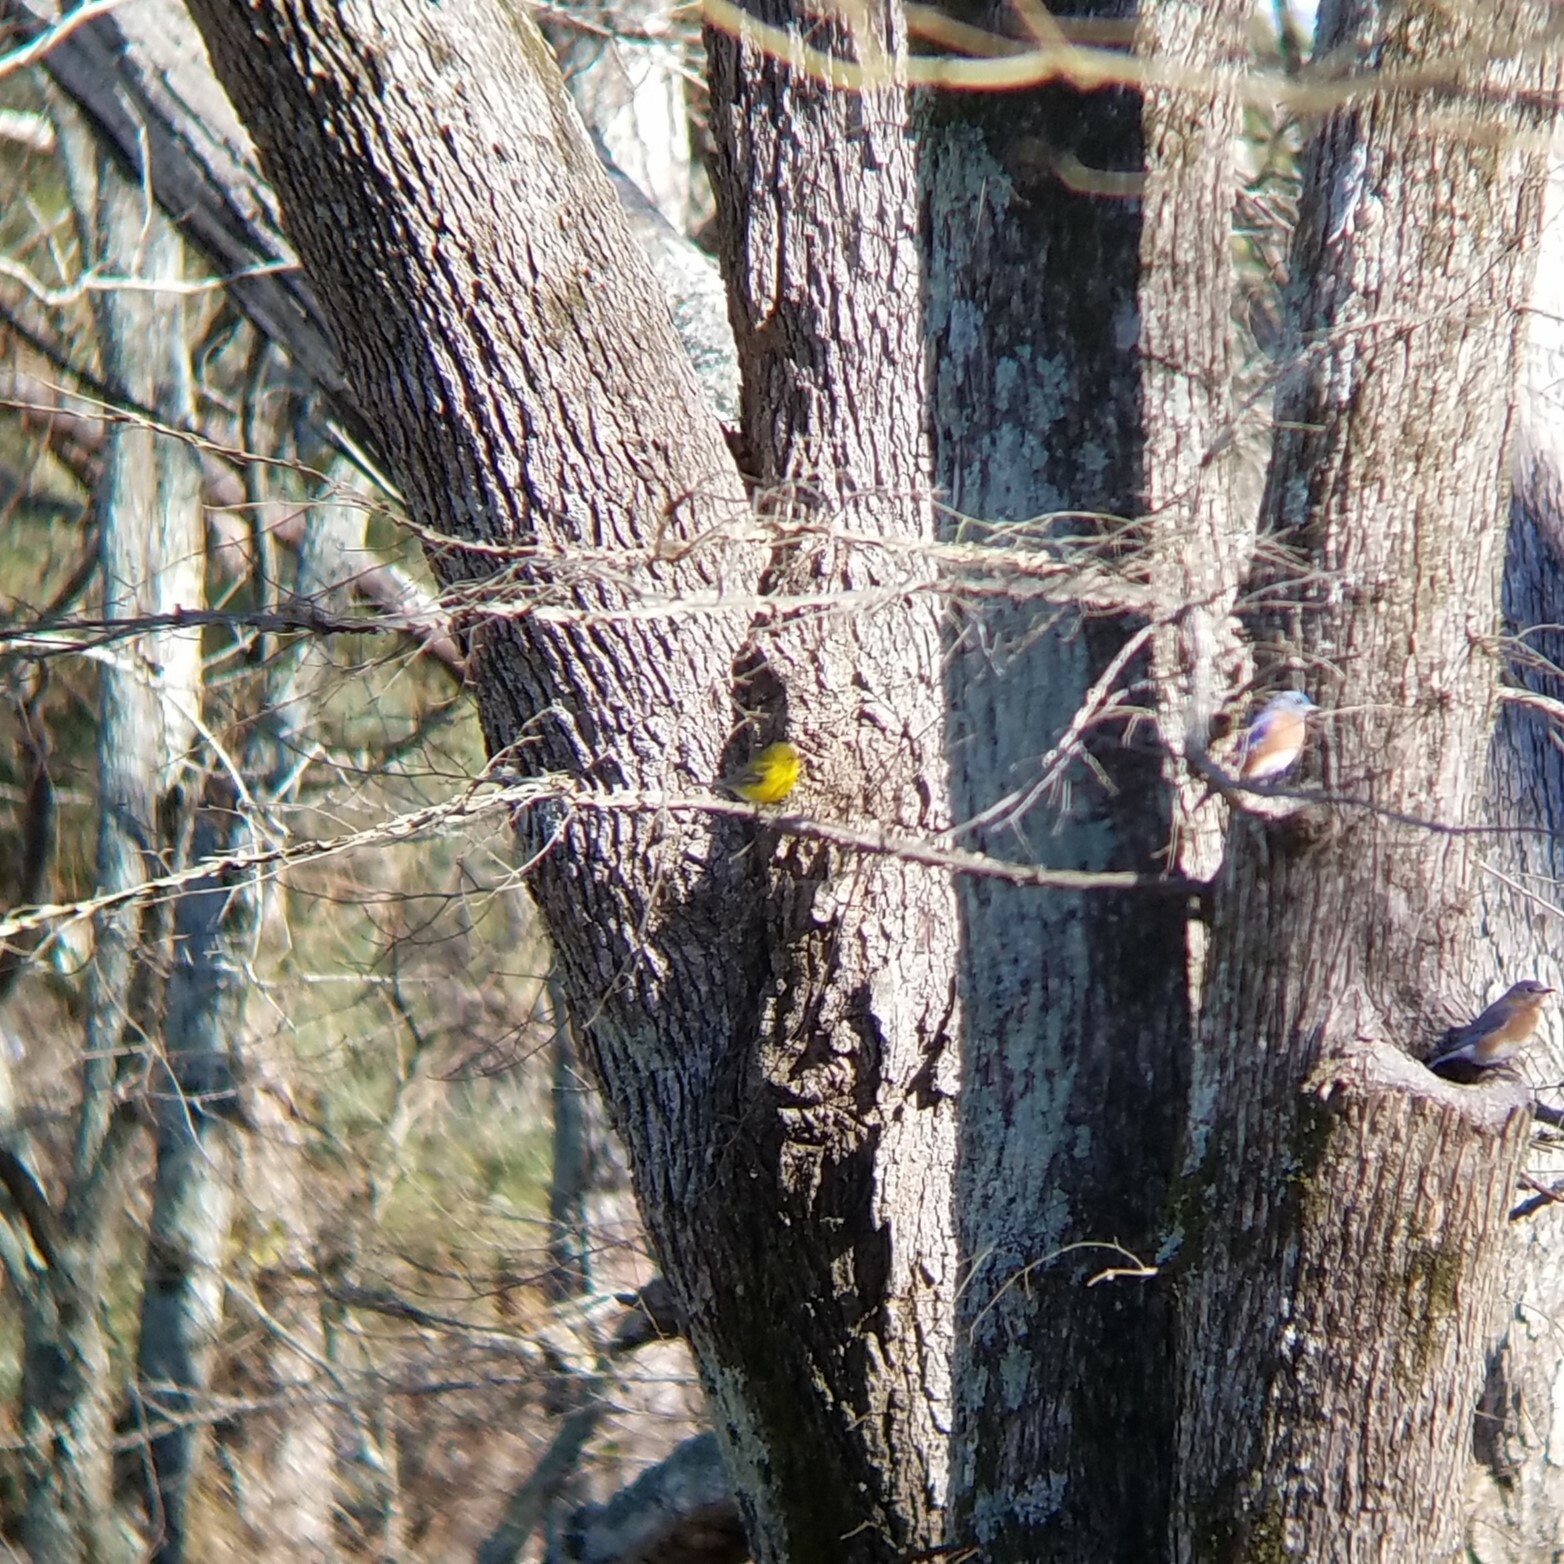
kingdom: Animalia
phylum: Chordata
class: Aves
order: Passeriformes
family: Parulidae
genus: Setophaga
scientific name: Setophaga pinus
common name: Pine warbler
